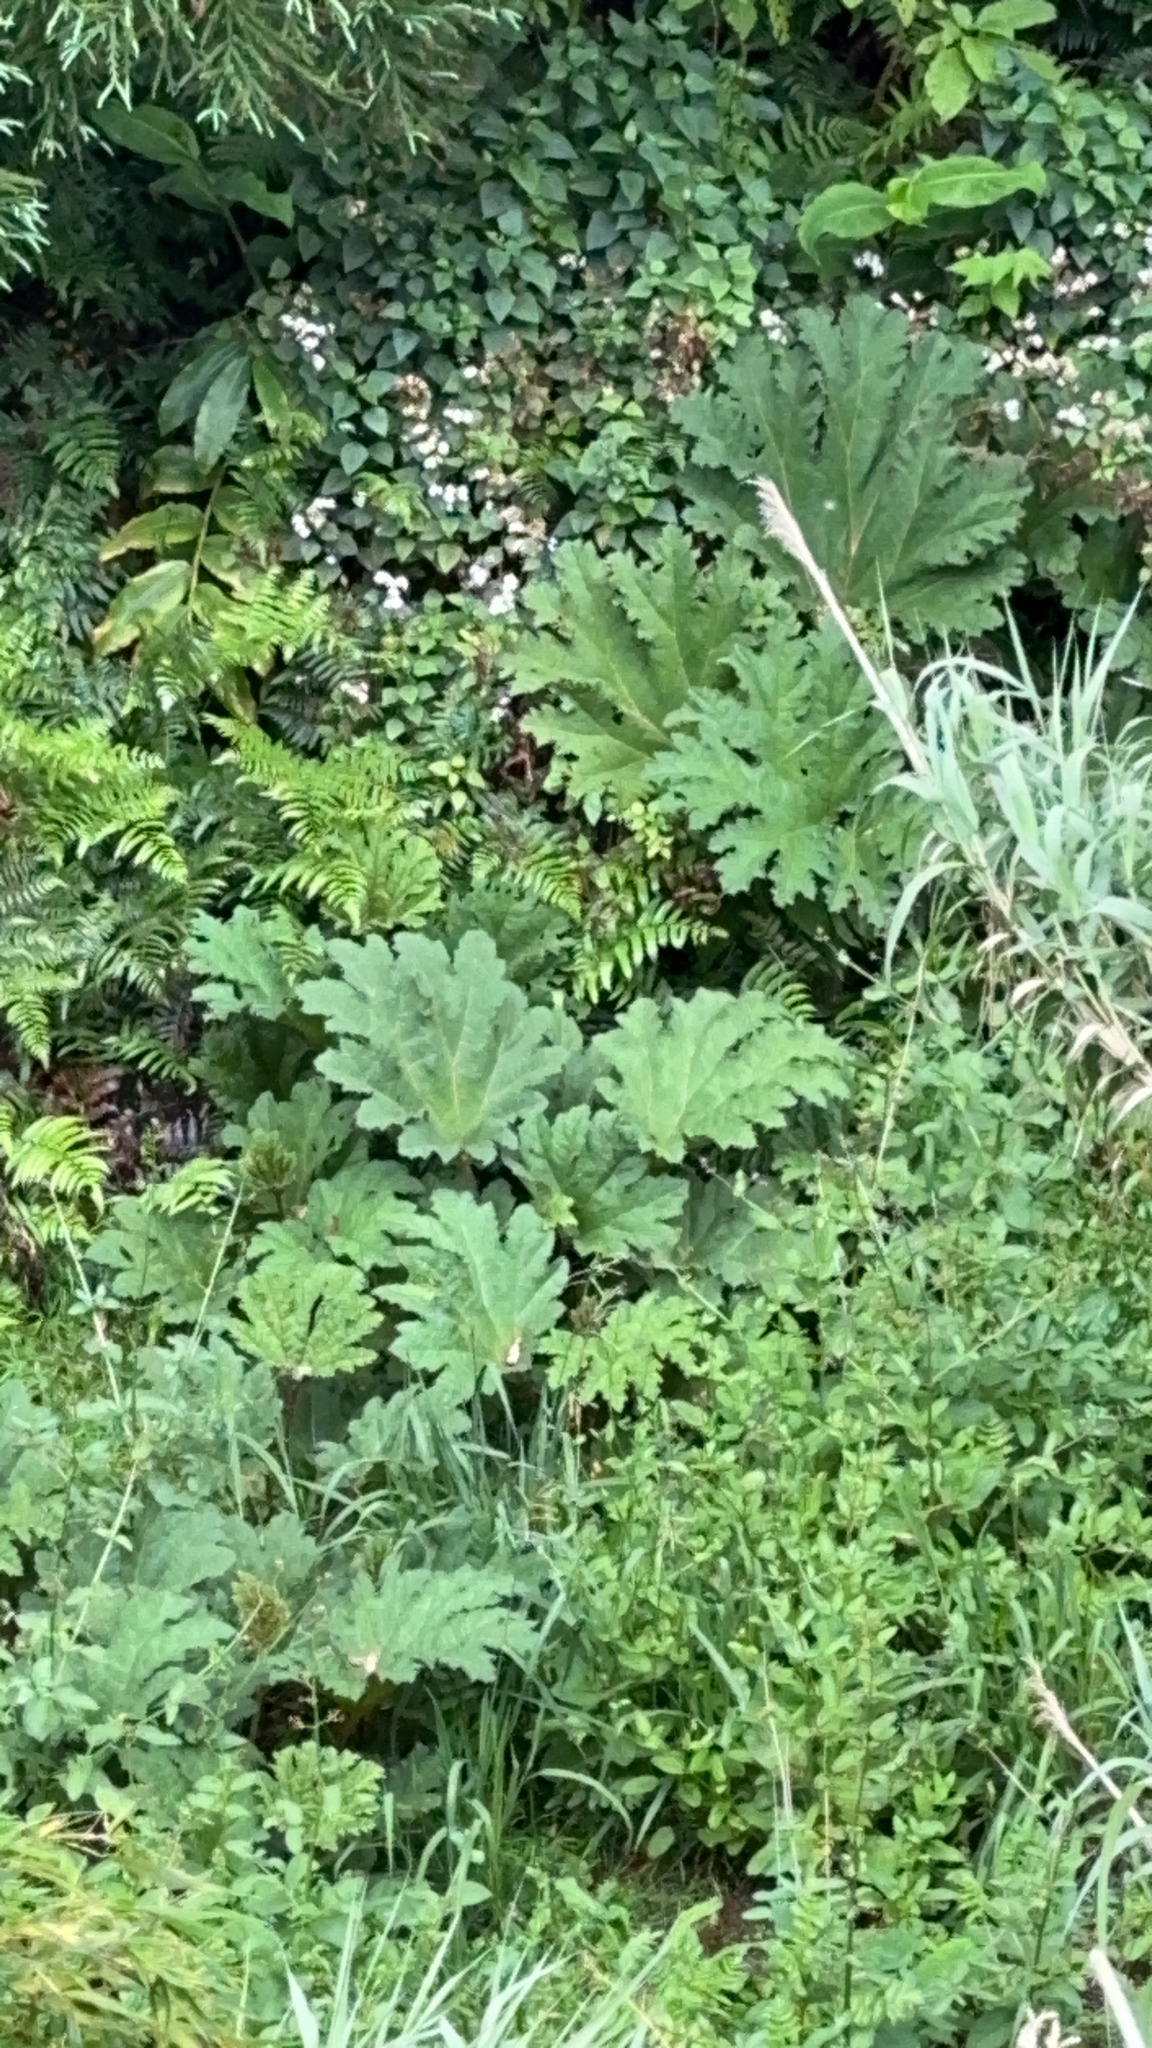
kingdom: Plantae
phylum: Tracheophyta
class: Magnoliopsida
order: Gunnerales
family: Gunneraceae
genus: Gunnera
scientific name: Gunnera tinctoria
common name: Giant-rhubarb
